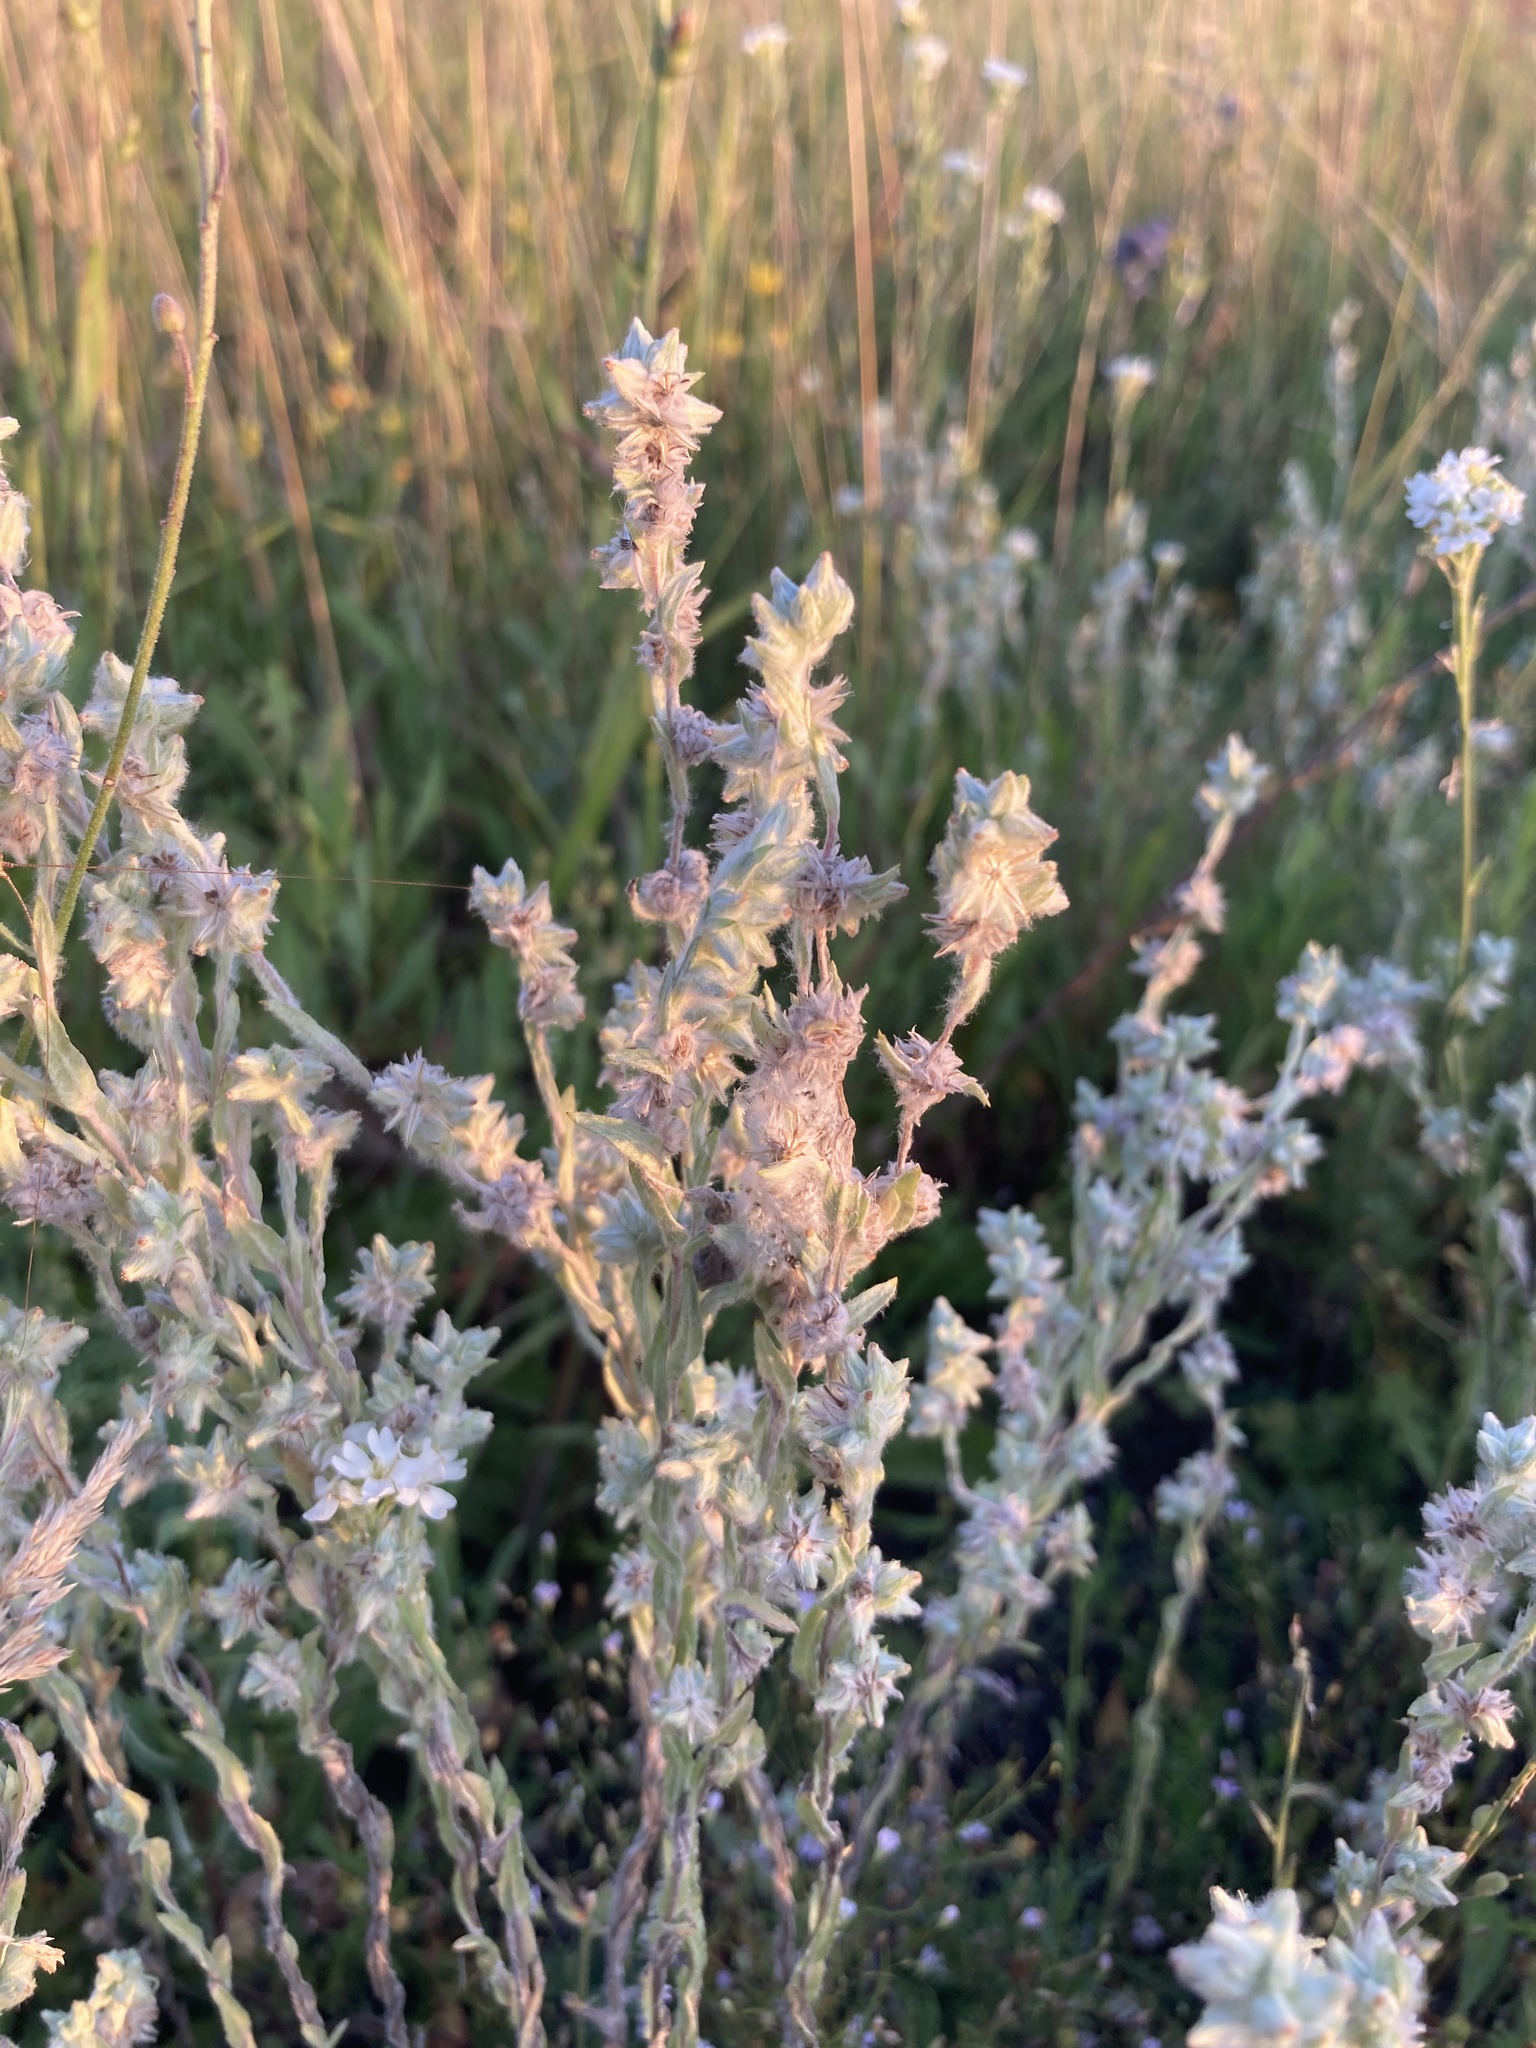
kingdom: Plantae
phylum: Tracheophyta
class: Magnoliopsida
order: Asterales
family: Asteraceae
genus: Filago
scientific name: Filago arvensis
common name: Field cudweed
